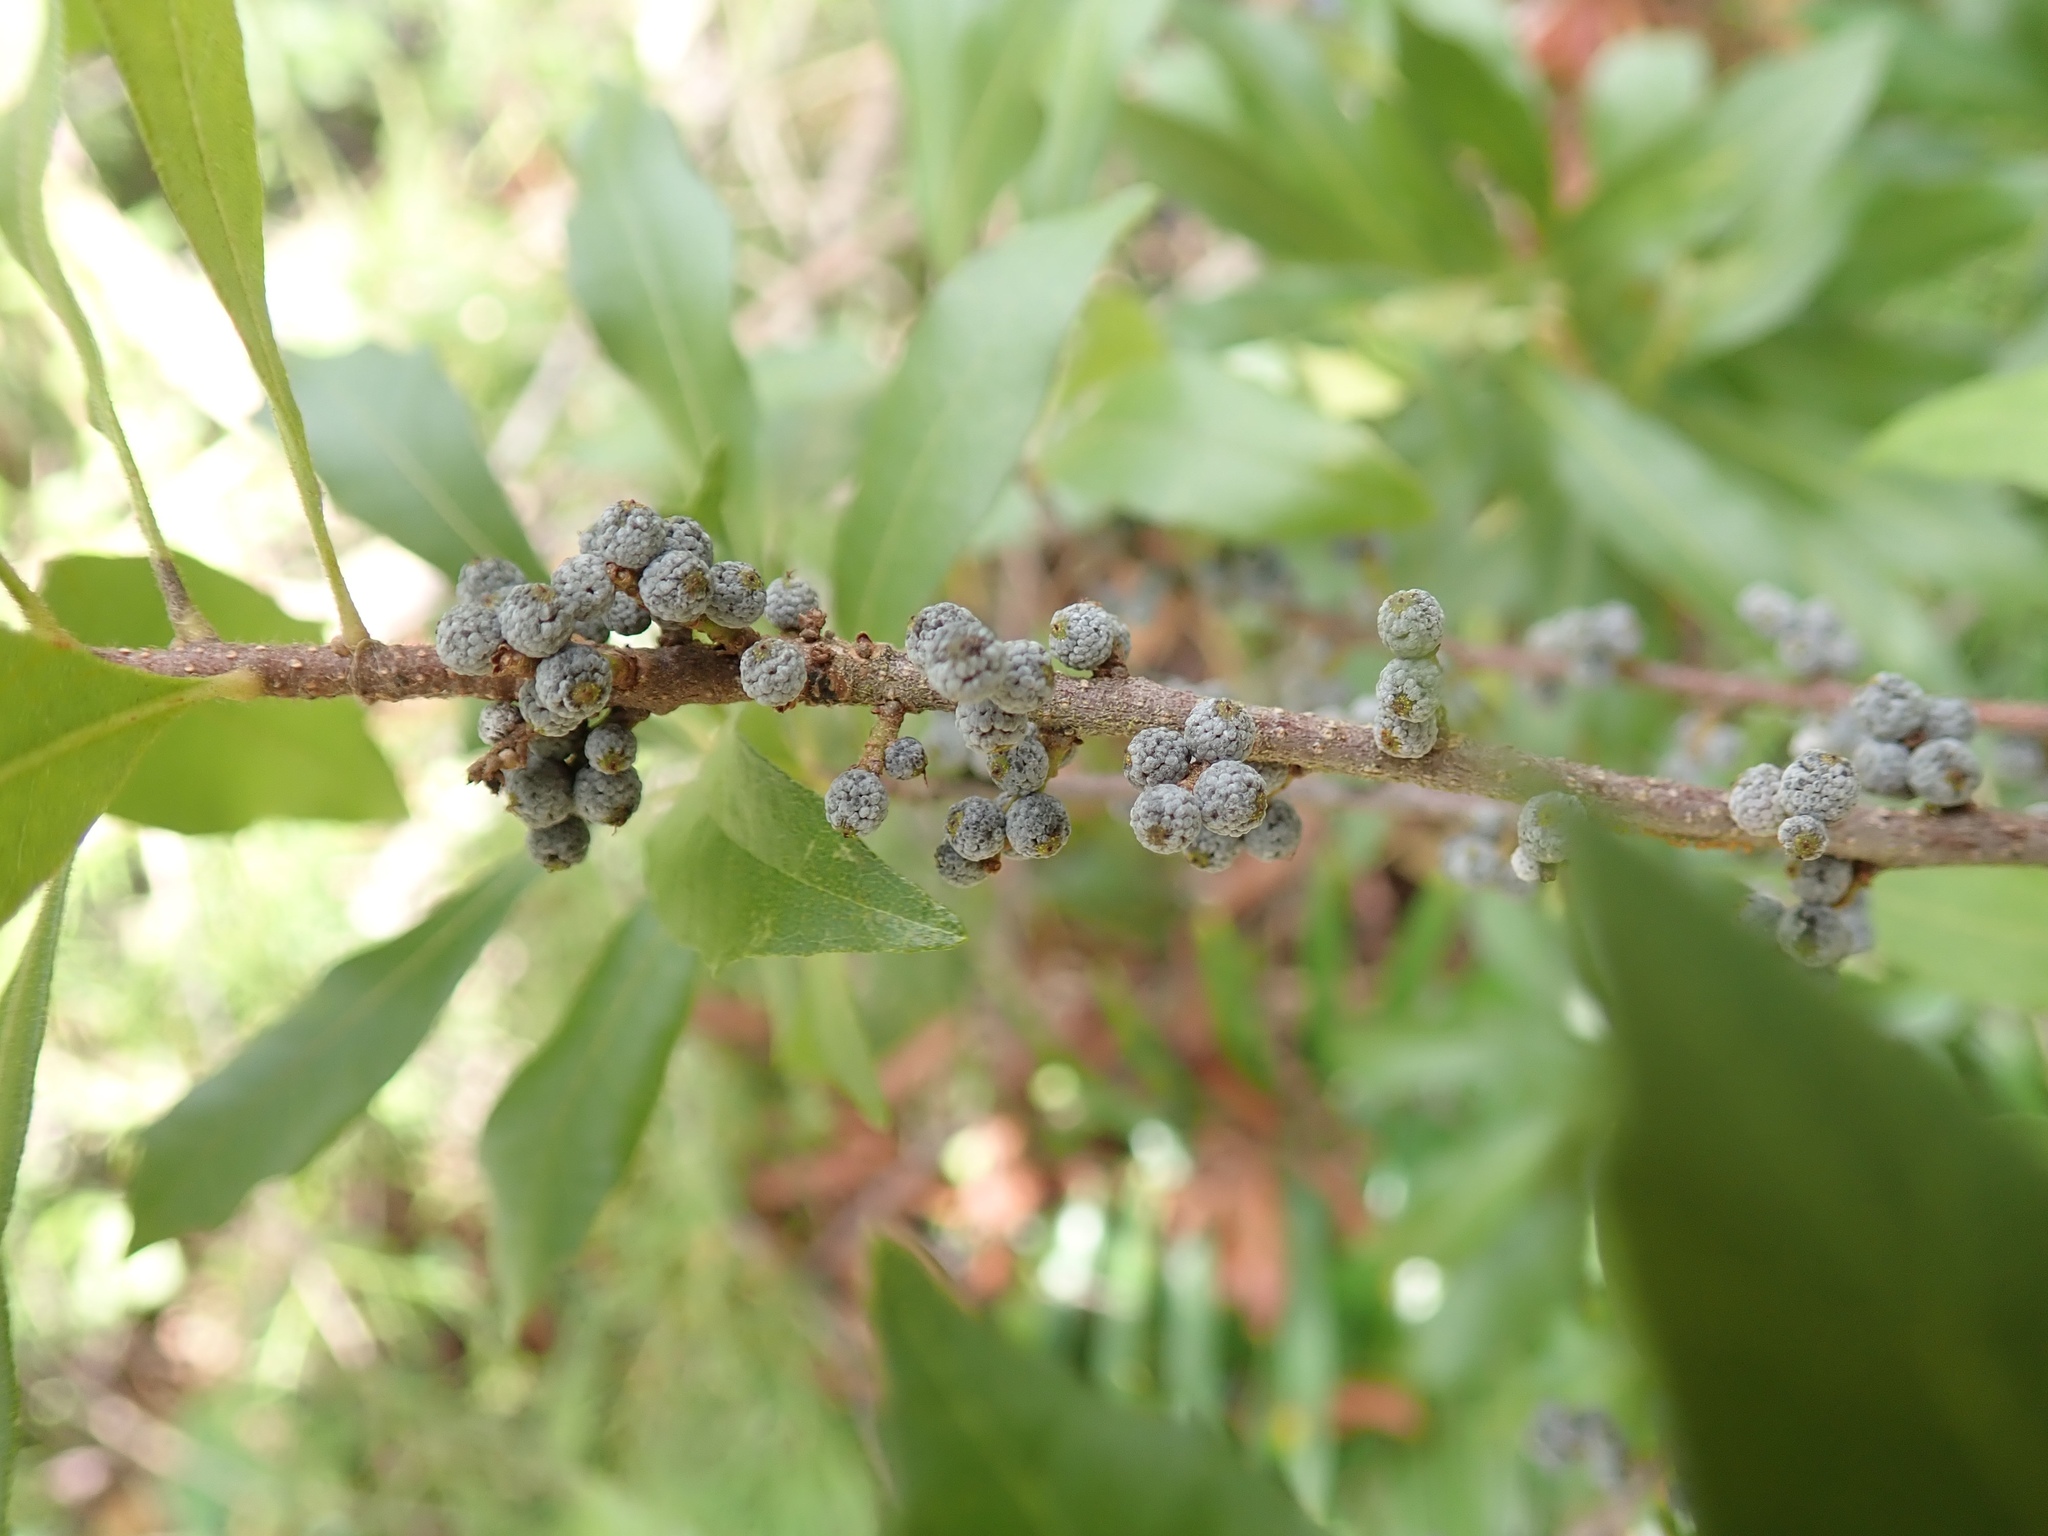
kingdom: Plantae
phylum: Tracheophyta
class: Magnoliopsida
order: Fagales
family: Myricaceae
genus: Morella
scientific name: Morella cerifera
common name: Wax myrtle
